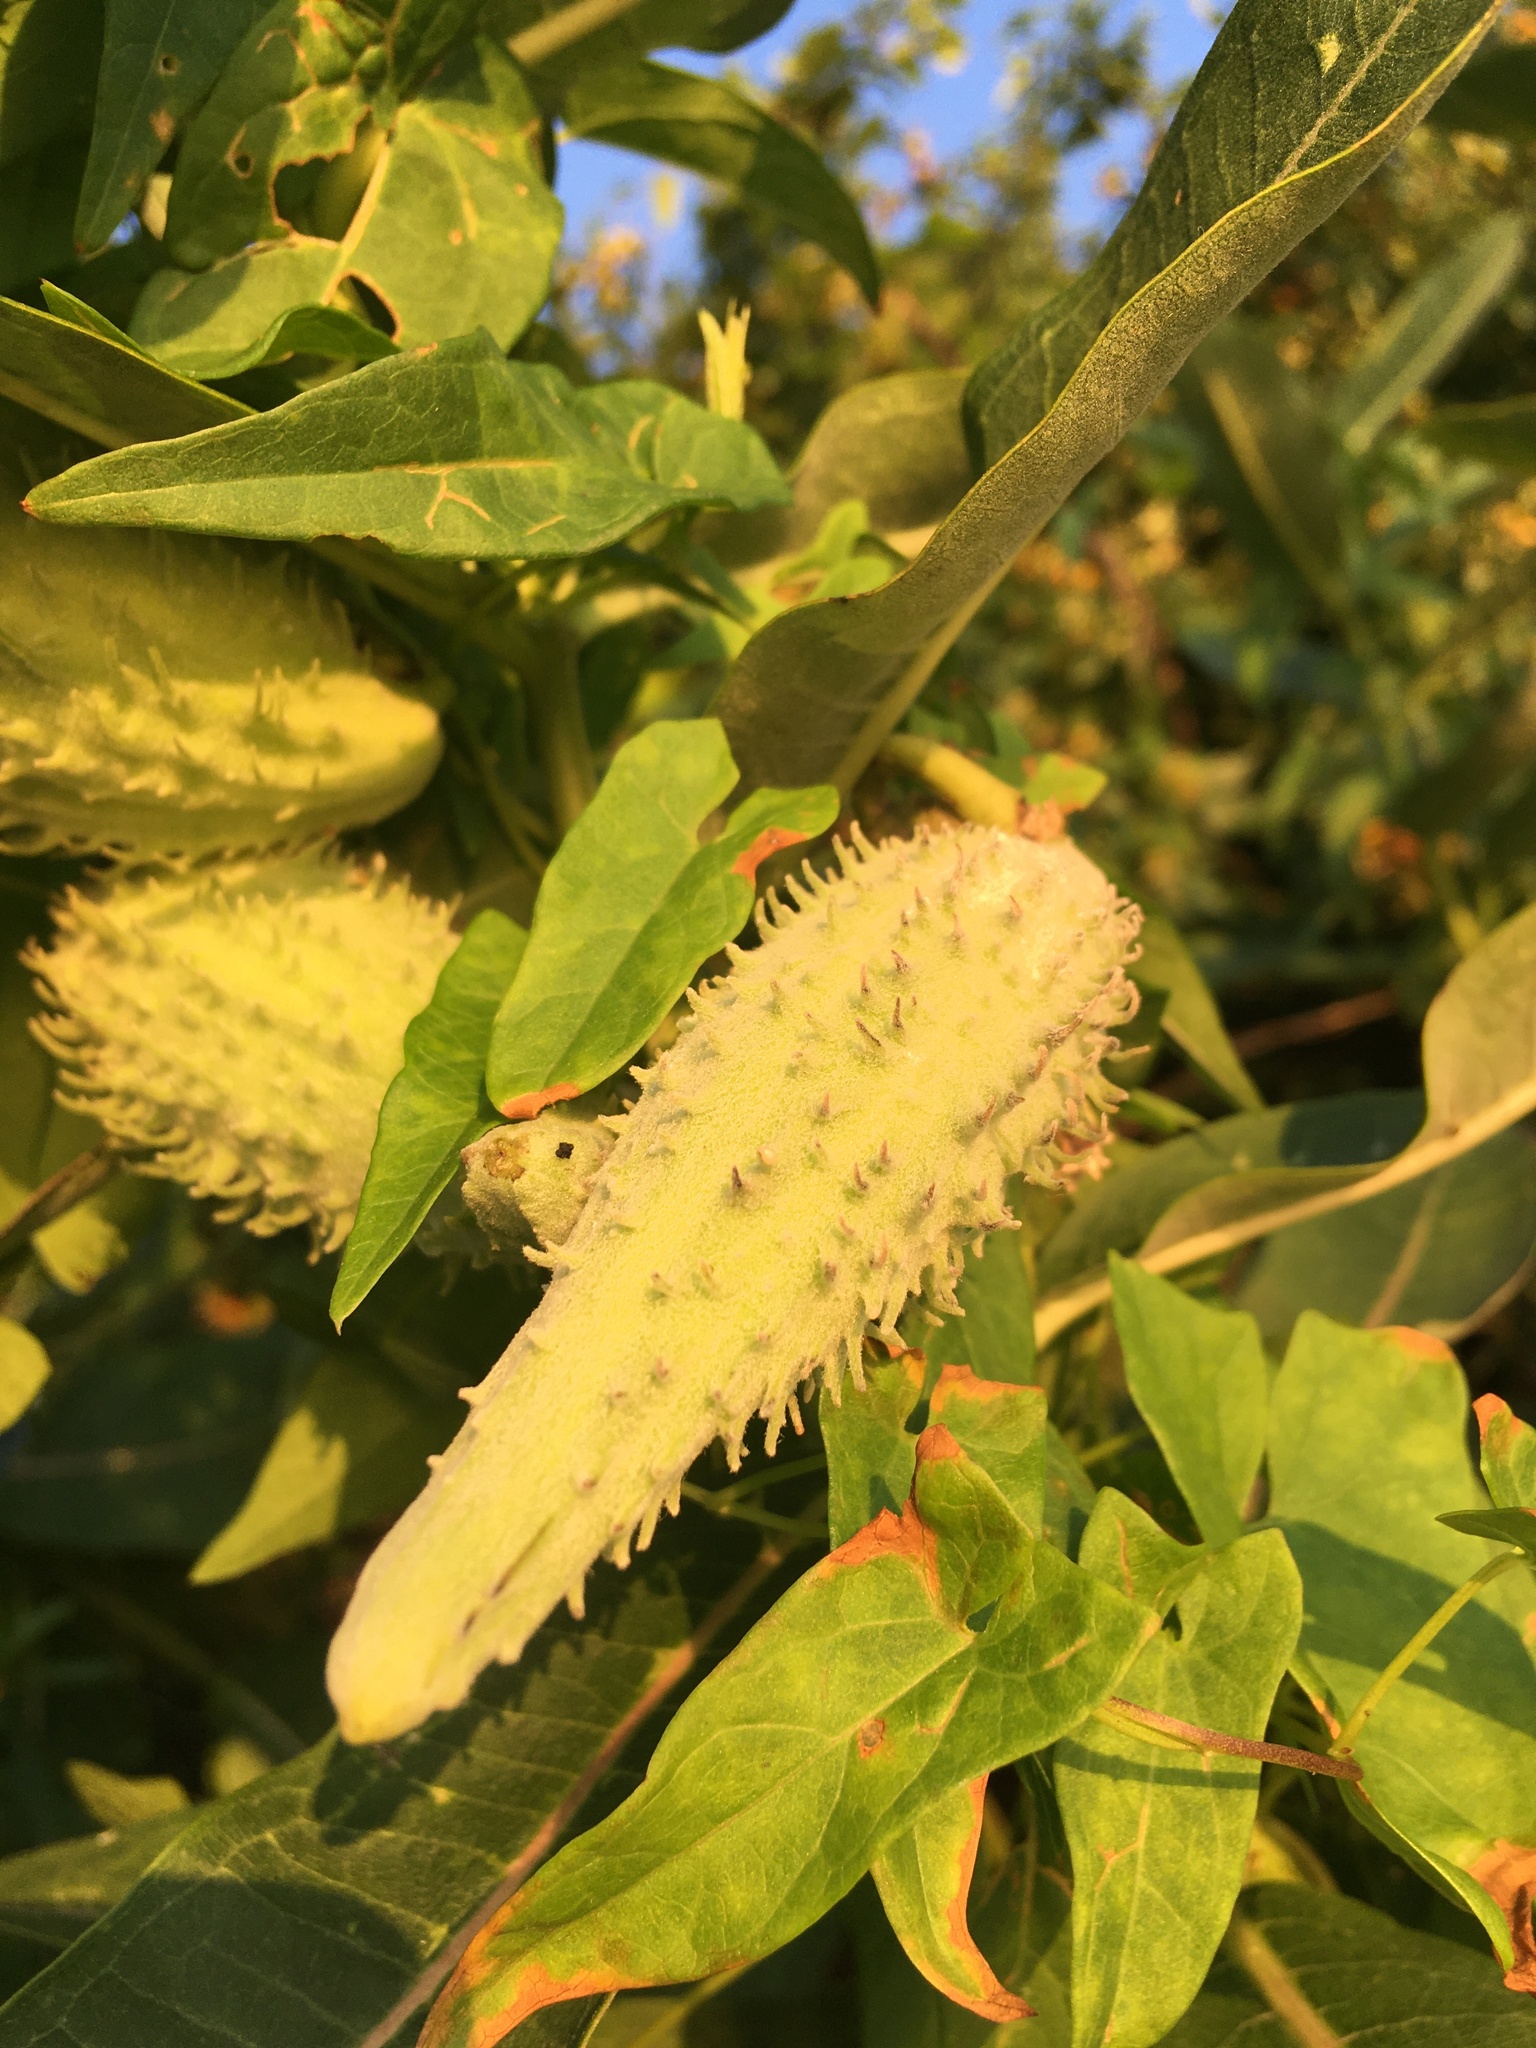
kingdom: Plantae
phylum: Tracheophyta
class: Magnoliopsida
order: Gentianales
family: Apocynaceae
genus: Asclepias
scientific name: Asclepias syriaca
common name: Common milkweed
